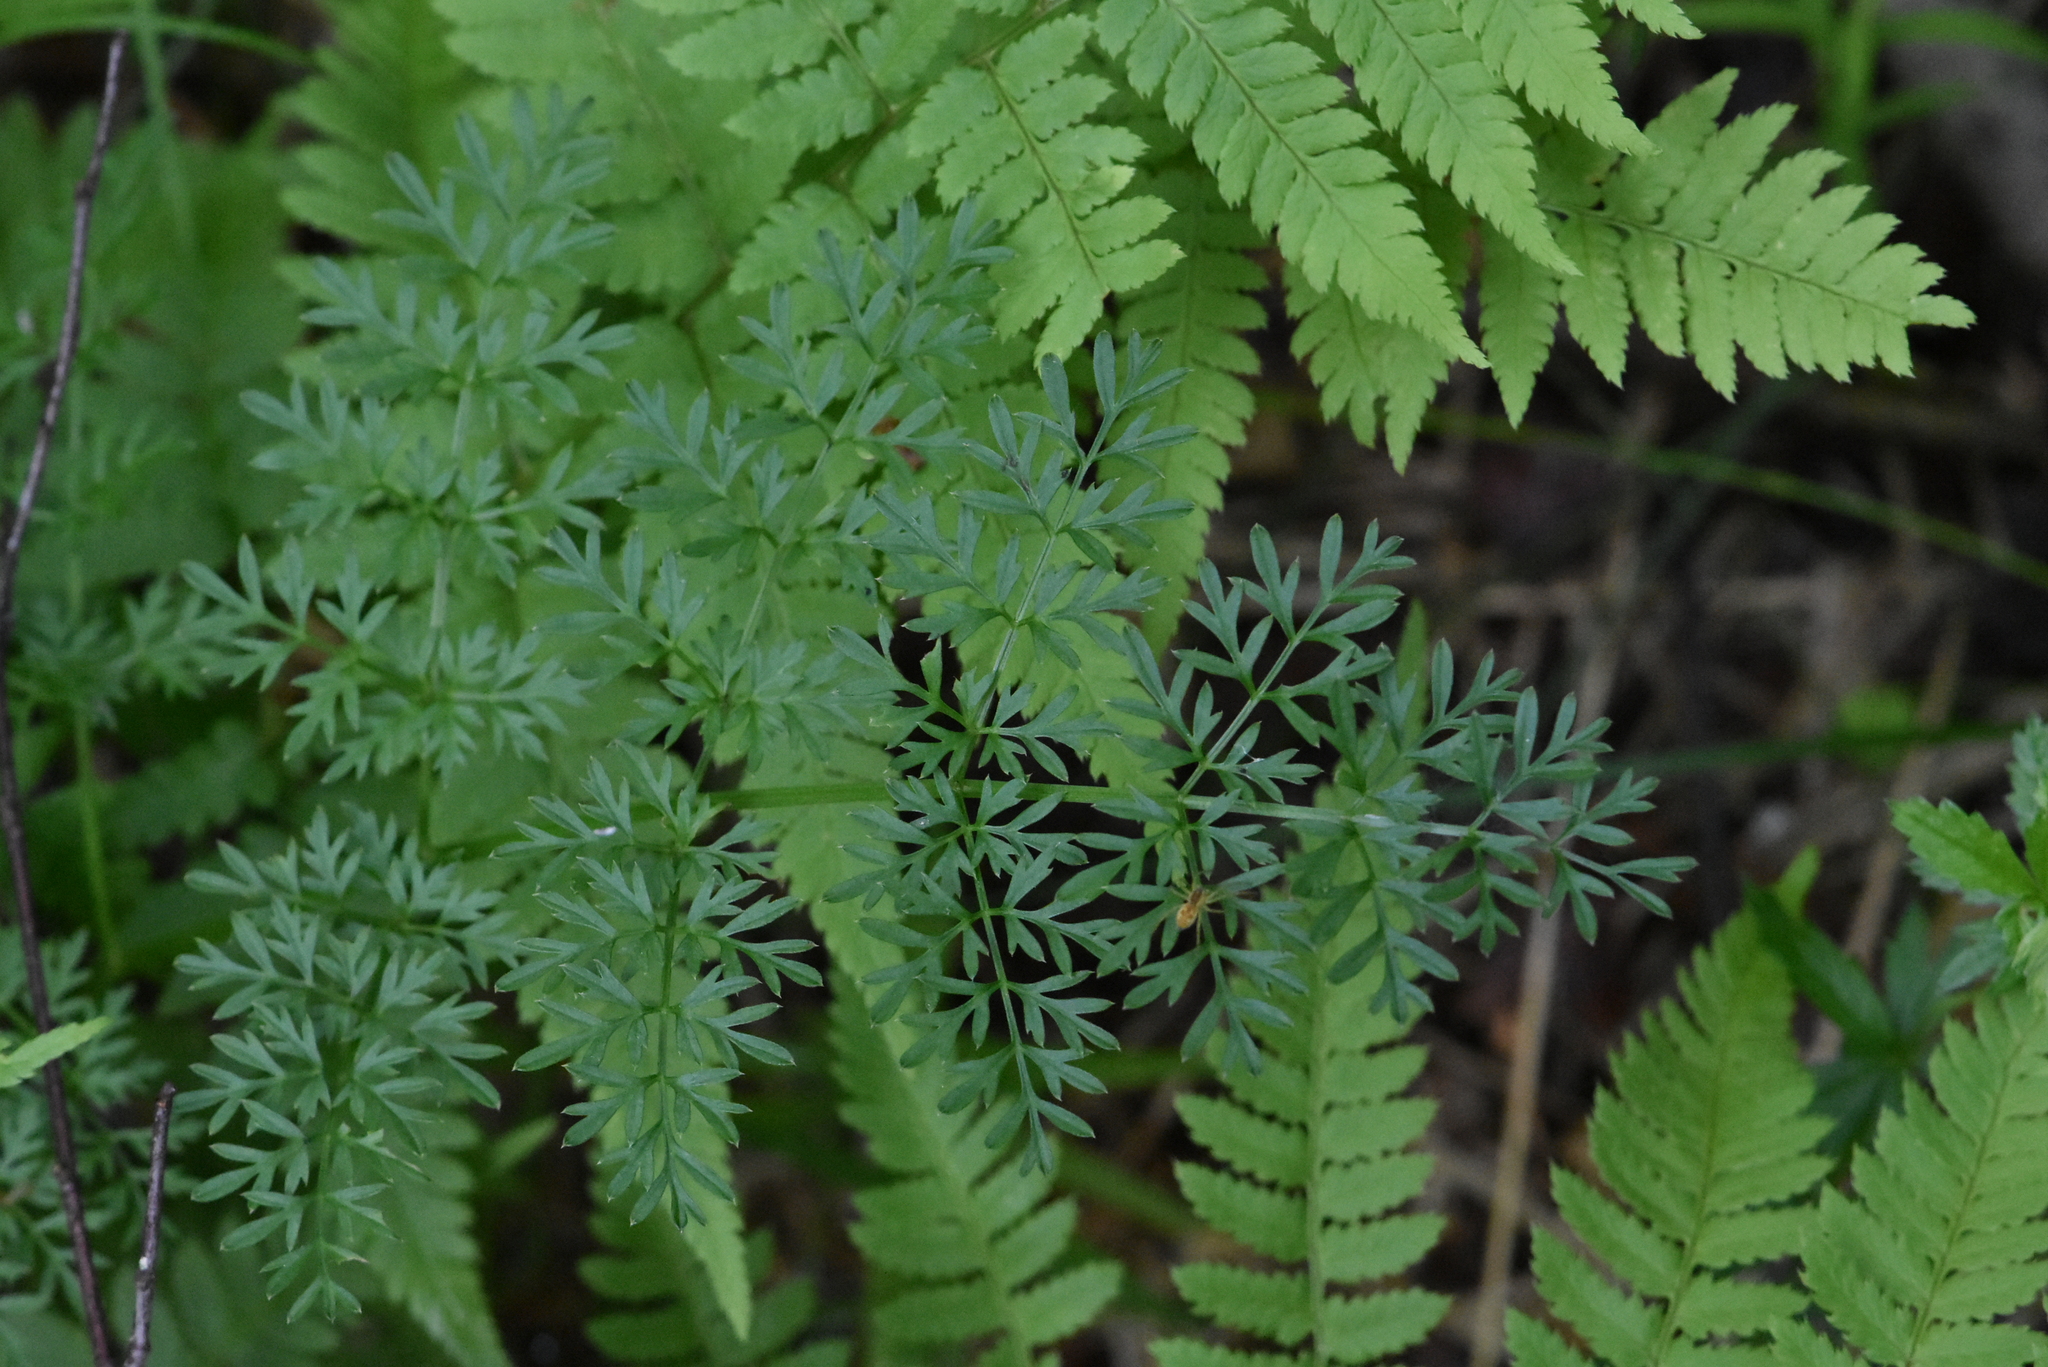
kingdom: Plantae
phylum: Tracheophyta
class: Magnoliopsida
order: Apiales
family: Apiaceae
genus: Selinum
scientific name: Selinum carvifolia
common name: Cambridge milk-parsley
